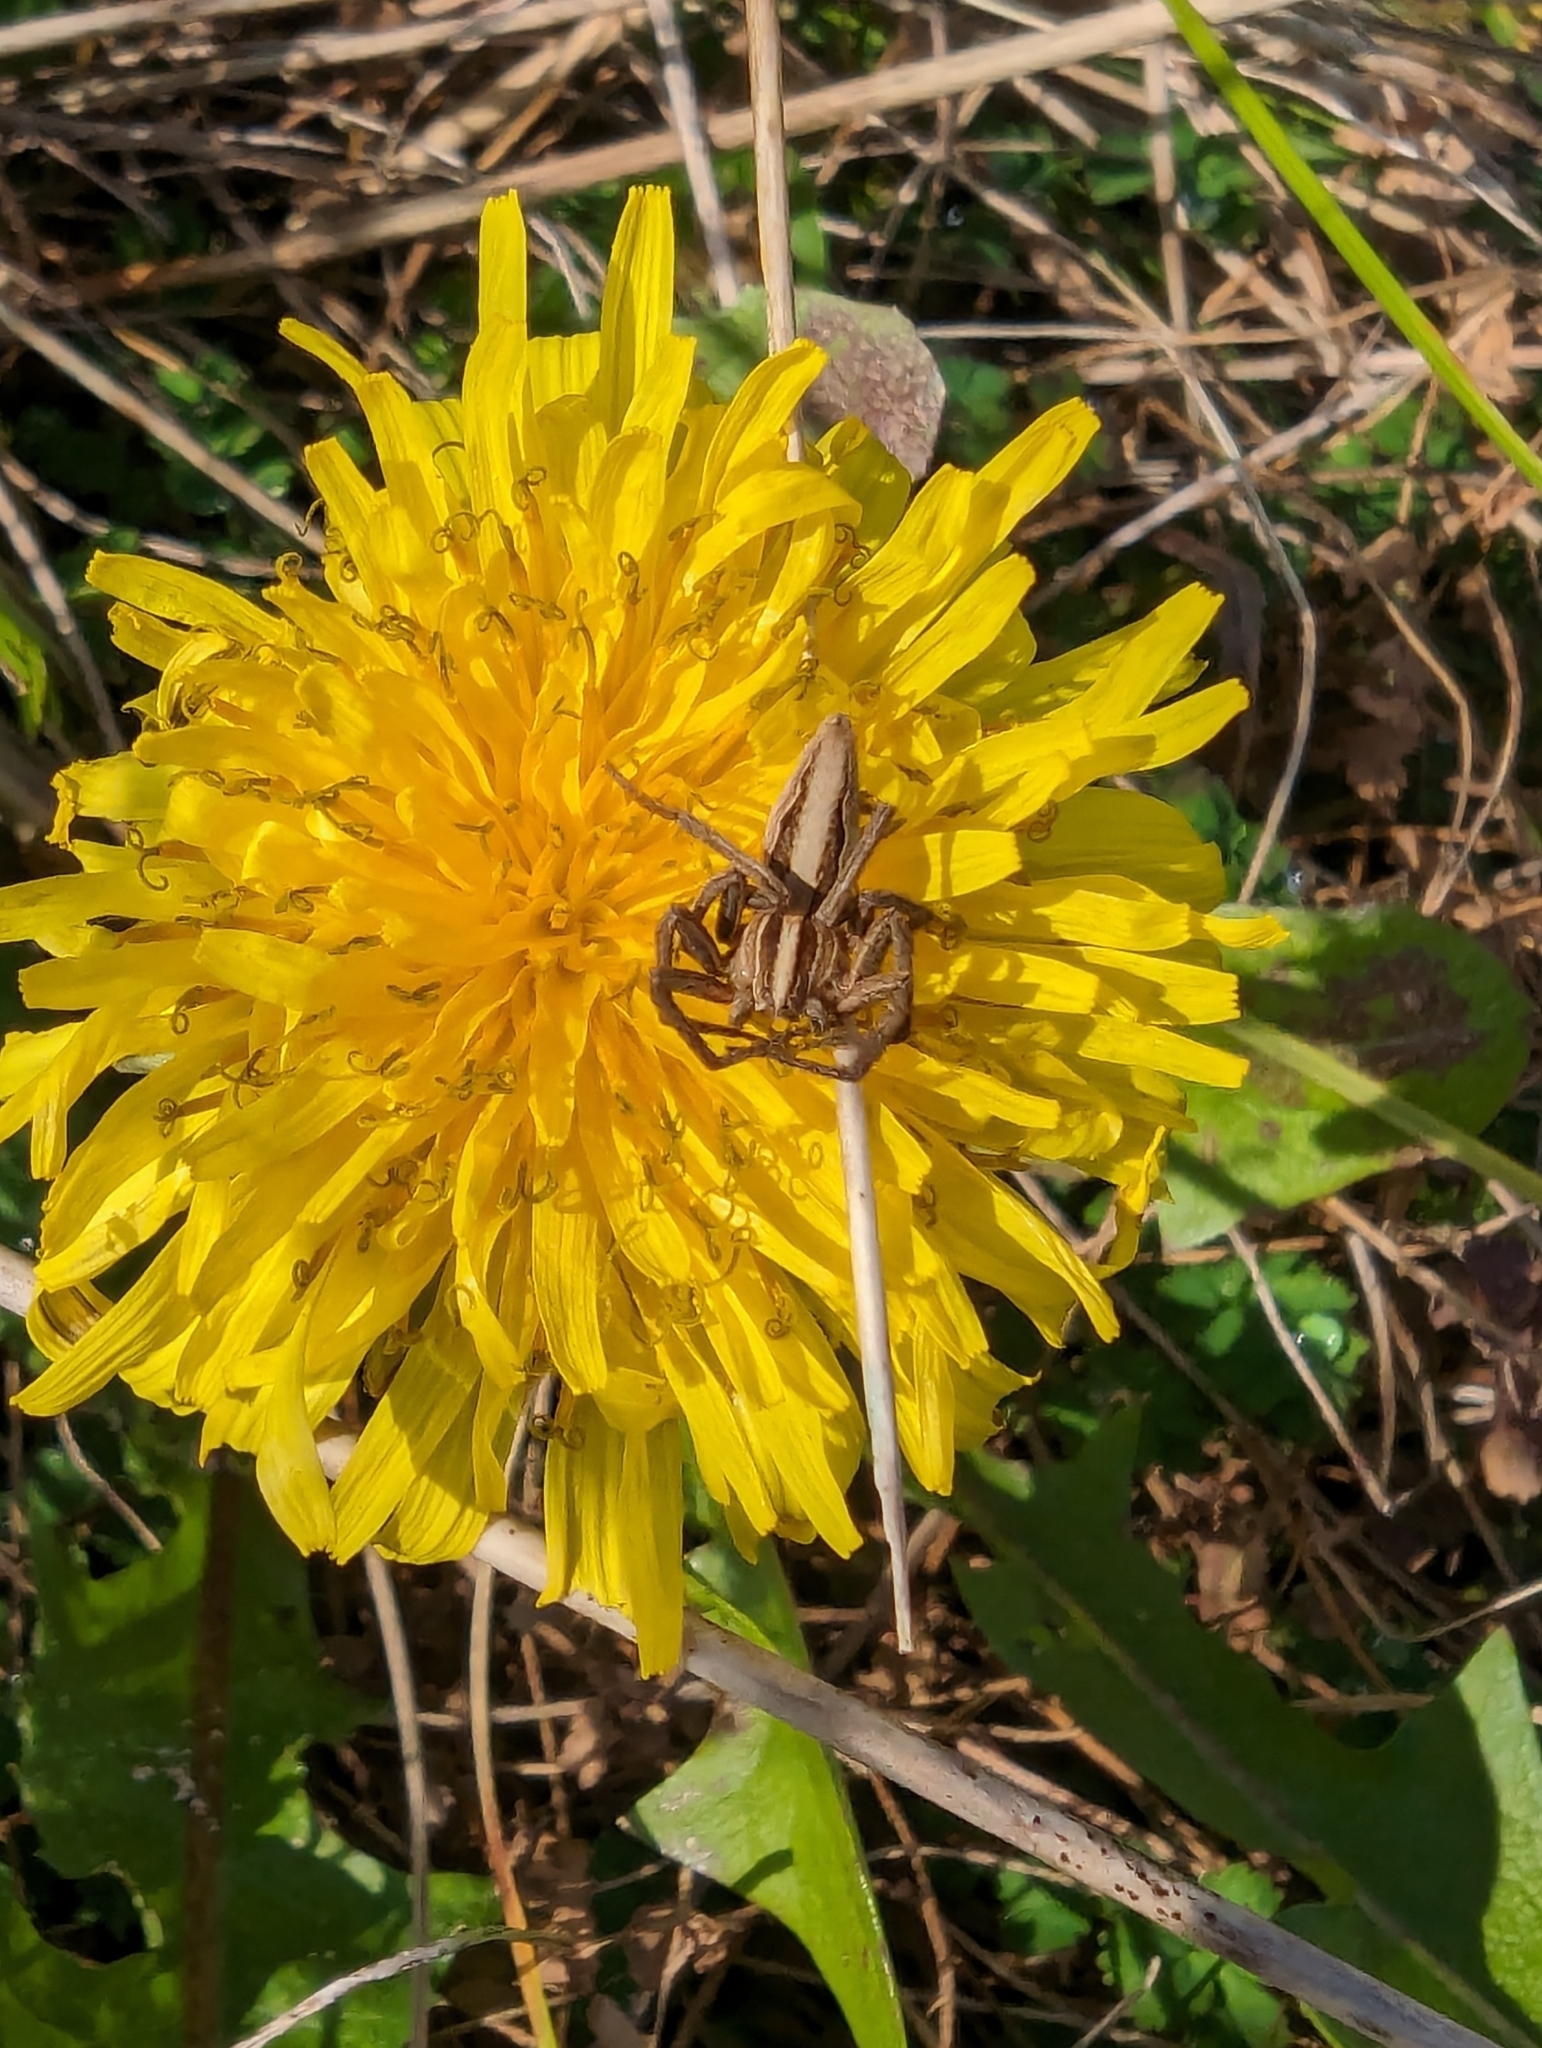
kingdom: Animalia
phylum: Arthropoda
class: Arachnida
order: Araneae
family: Pisauridae
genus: Pisaura
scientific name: Pisaura mirabilis
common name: Tent spider
